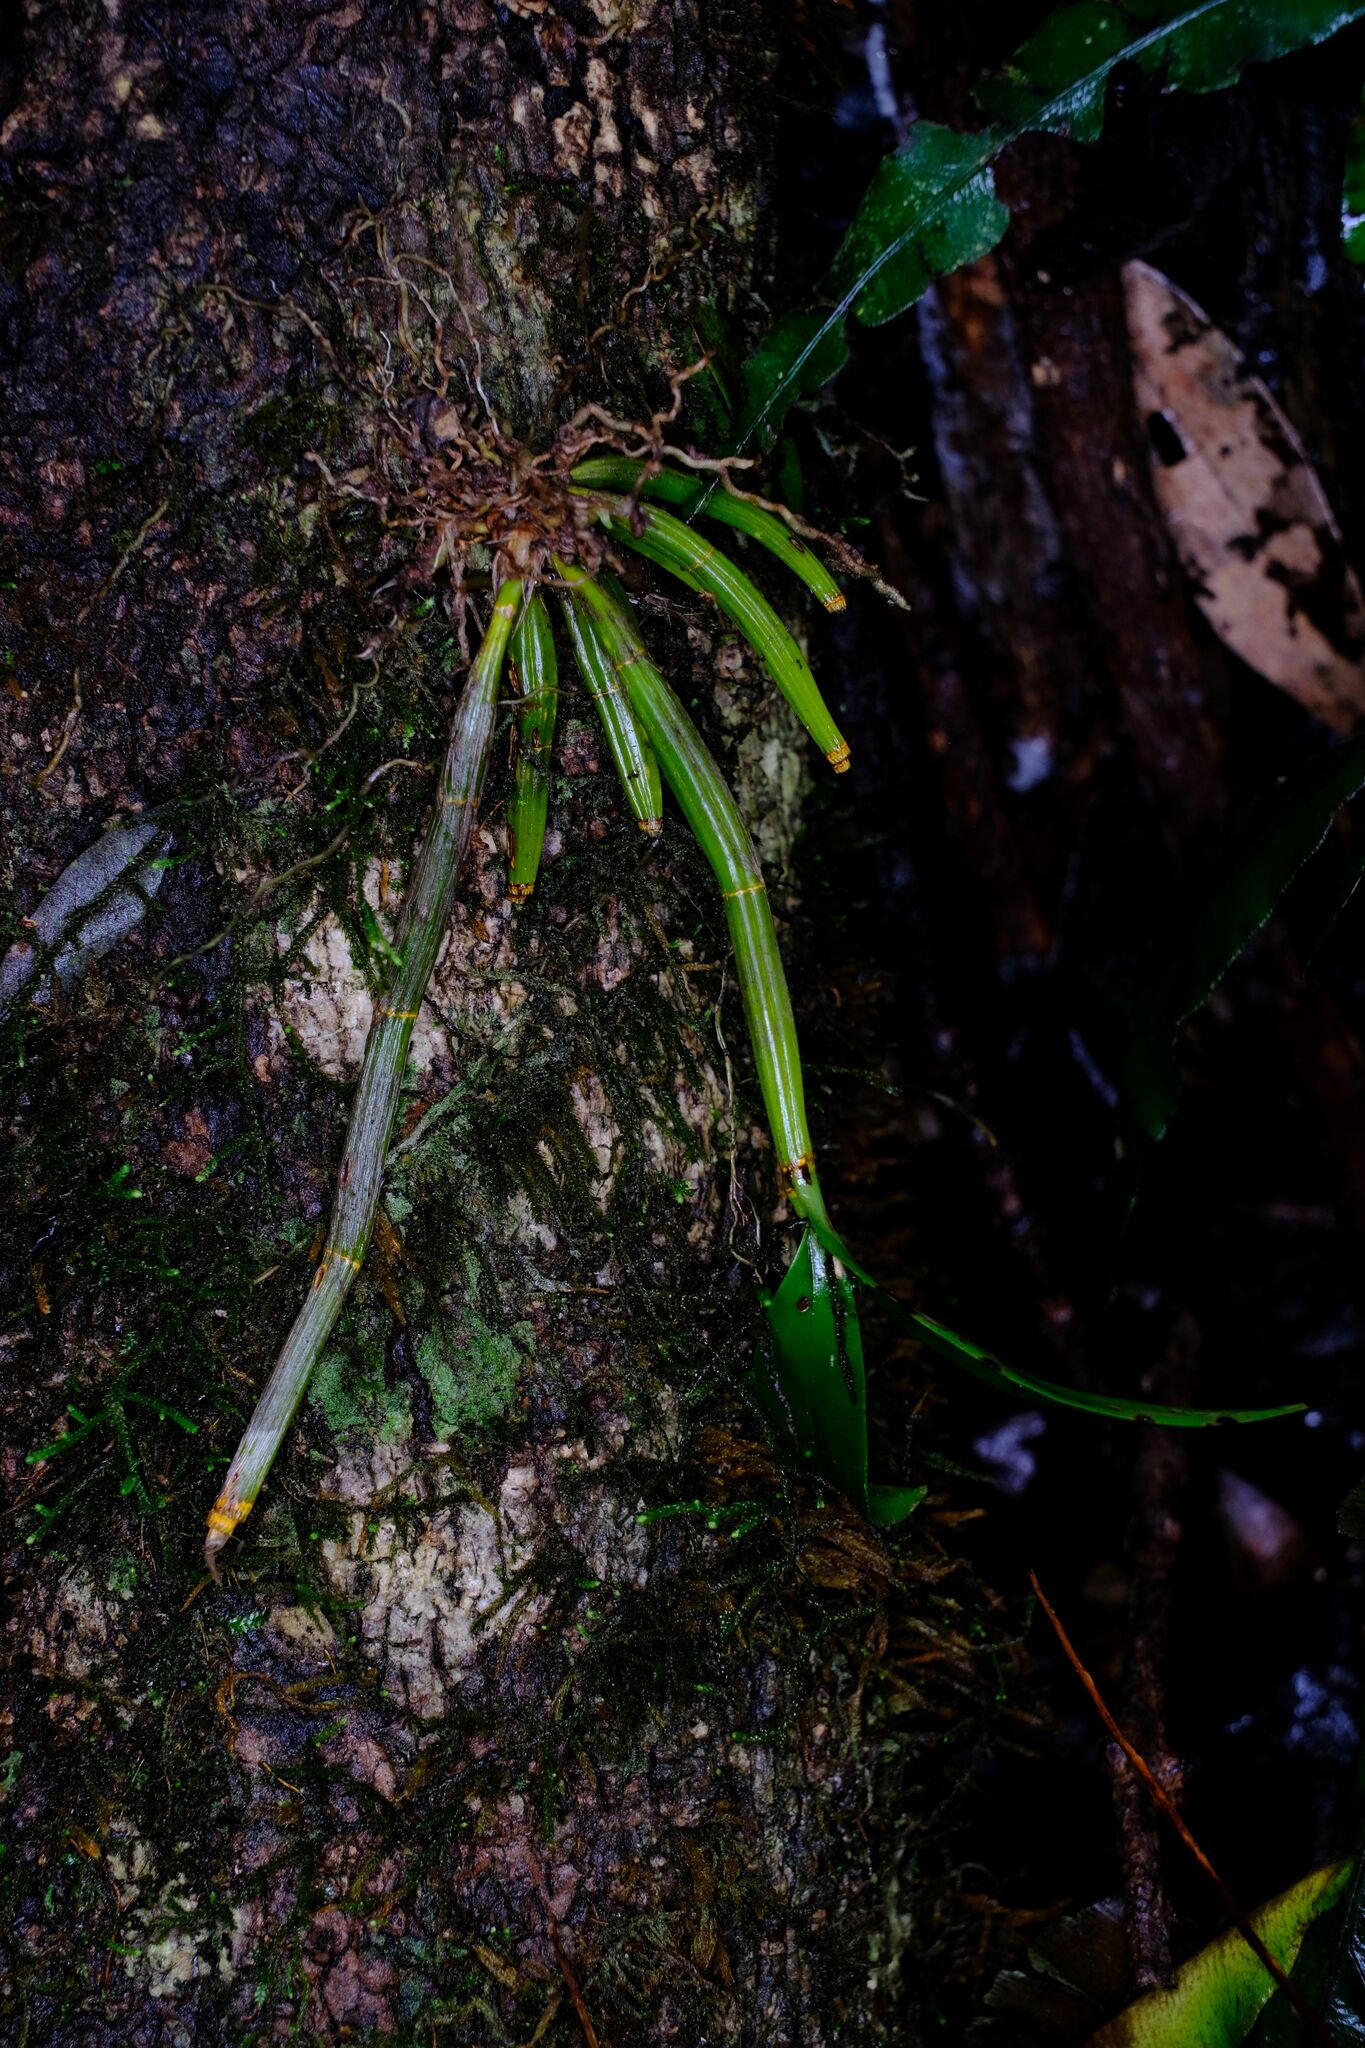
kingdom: Plantae
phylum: Tracheophyta
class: Liliopsida
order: Asparagales
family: Orchidaceae
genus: Dendrobium
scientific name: Dendrobium gracilicaule
